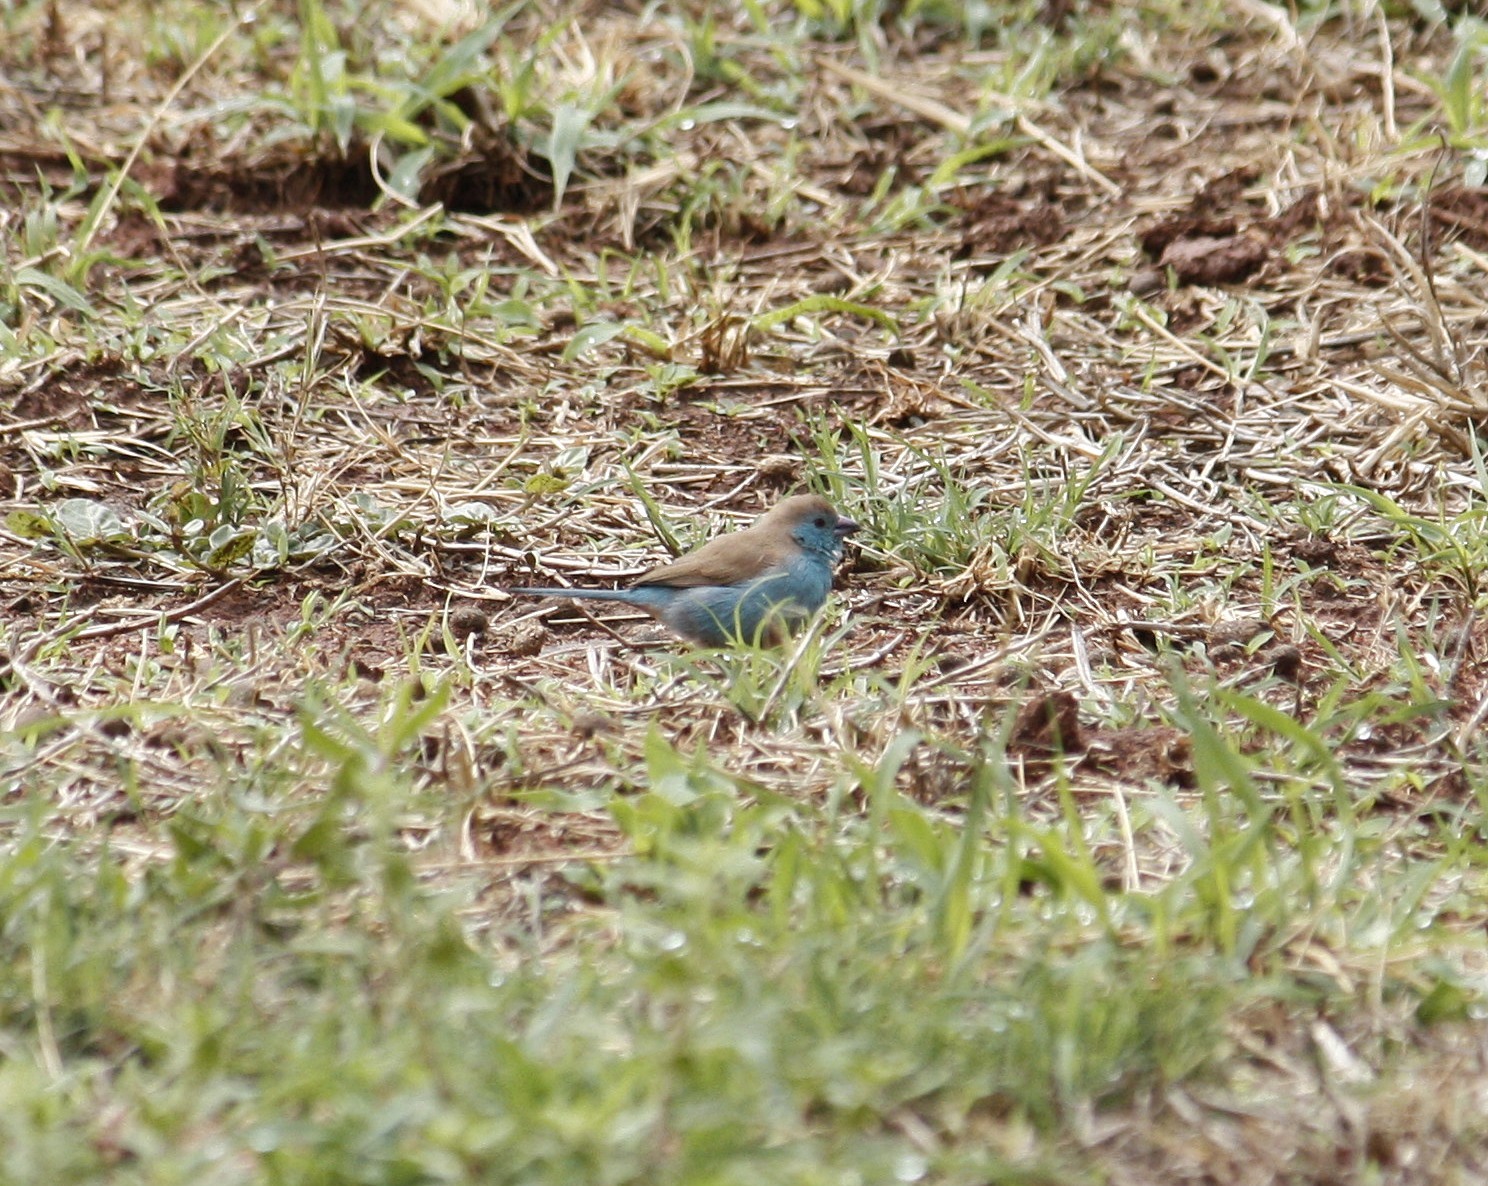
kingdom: Animalia
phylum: Chordata
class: Aves
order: Passeriformes
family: Estrildidae
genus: Uraeginthus
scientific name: Uraeginthus angolensis
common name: Blue waxbill
